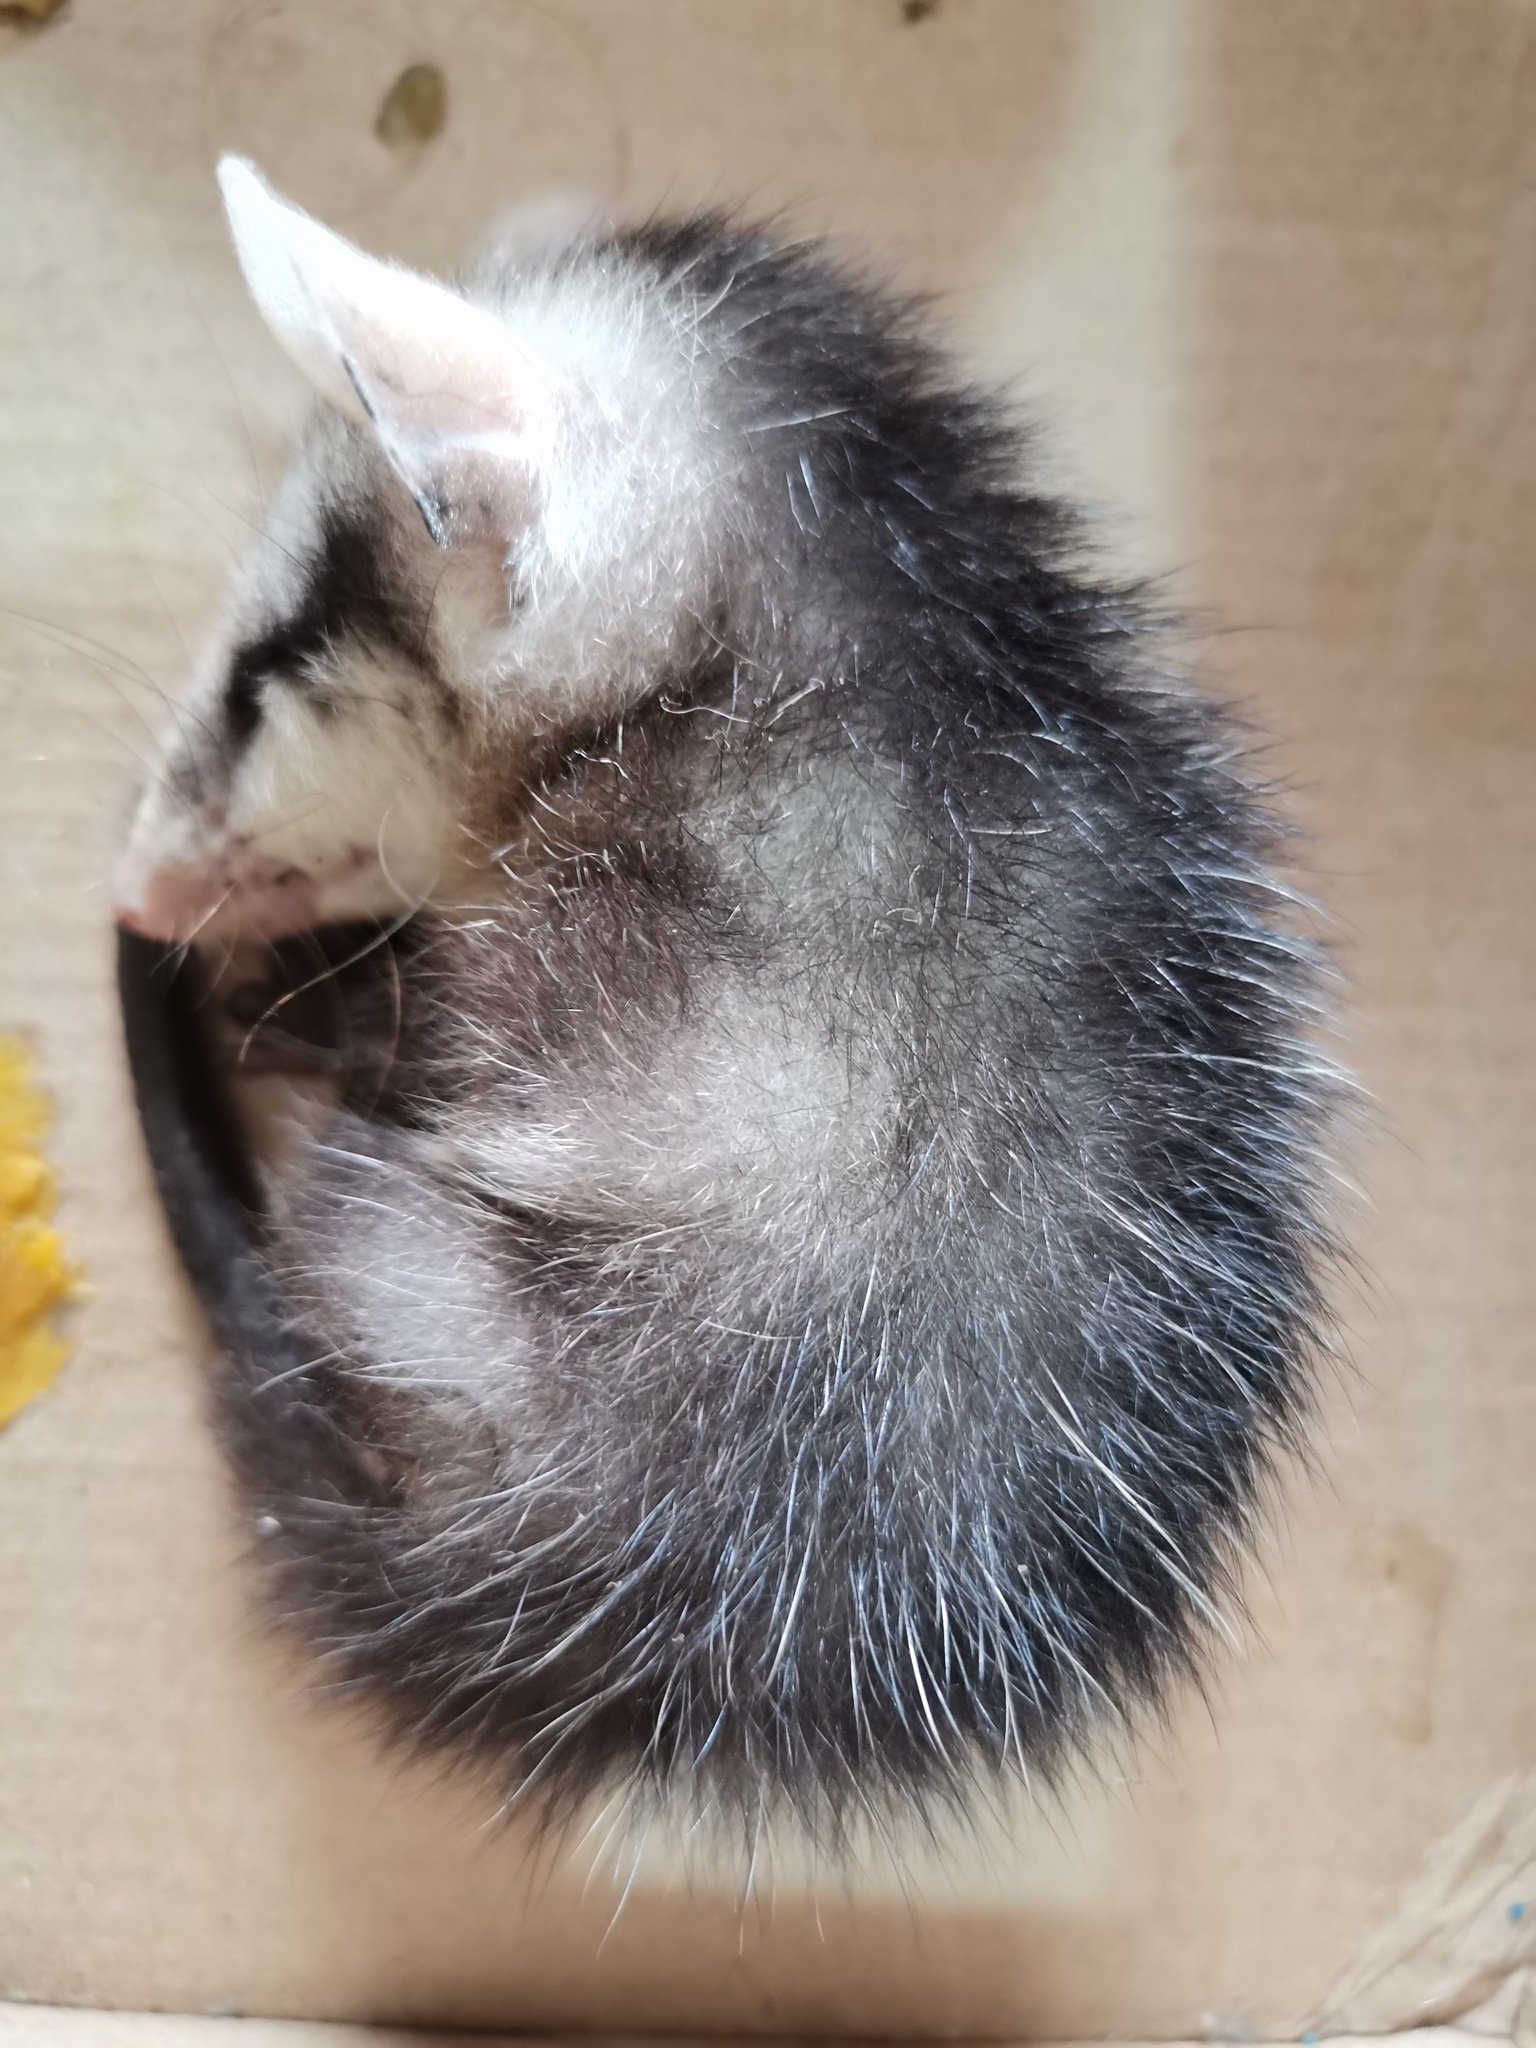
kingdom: Animalia
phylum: Chordata
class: Mammalia
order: Didelphimorphia
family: Didelphidae
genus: Didelphis
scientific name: Didelphis virginiana
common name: Virginia opossum
